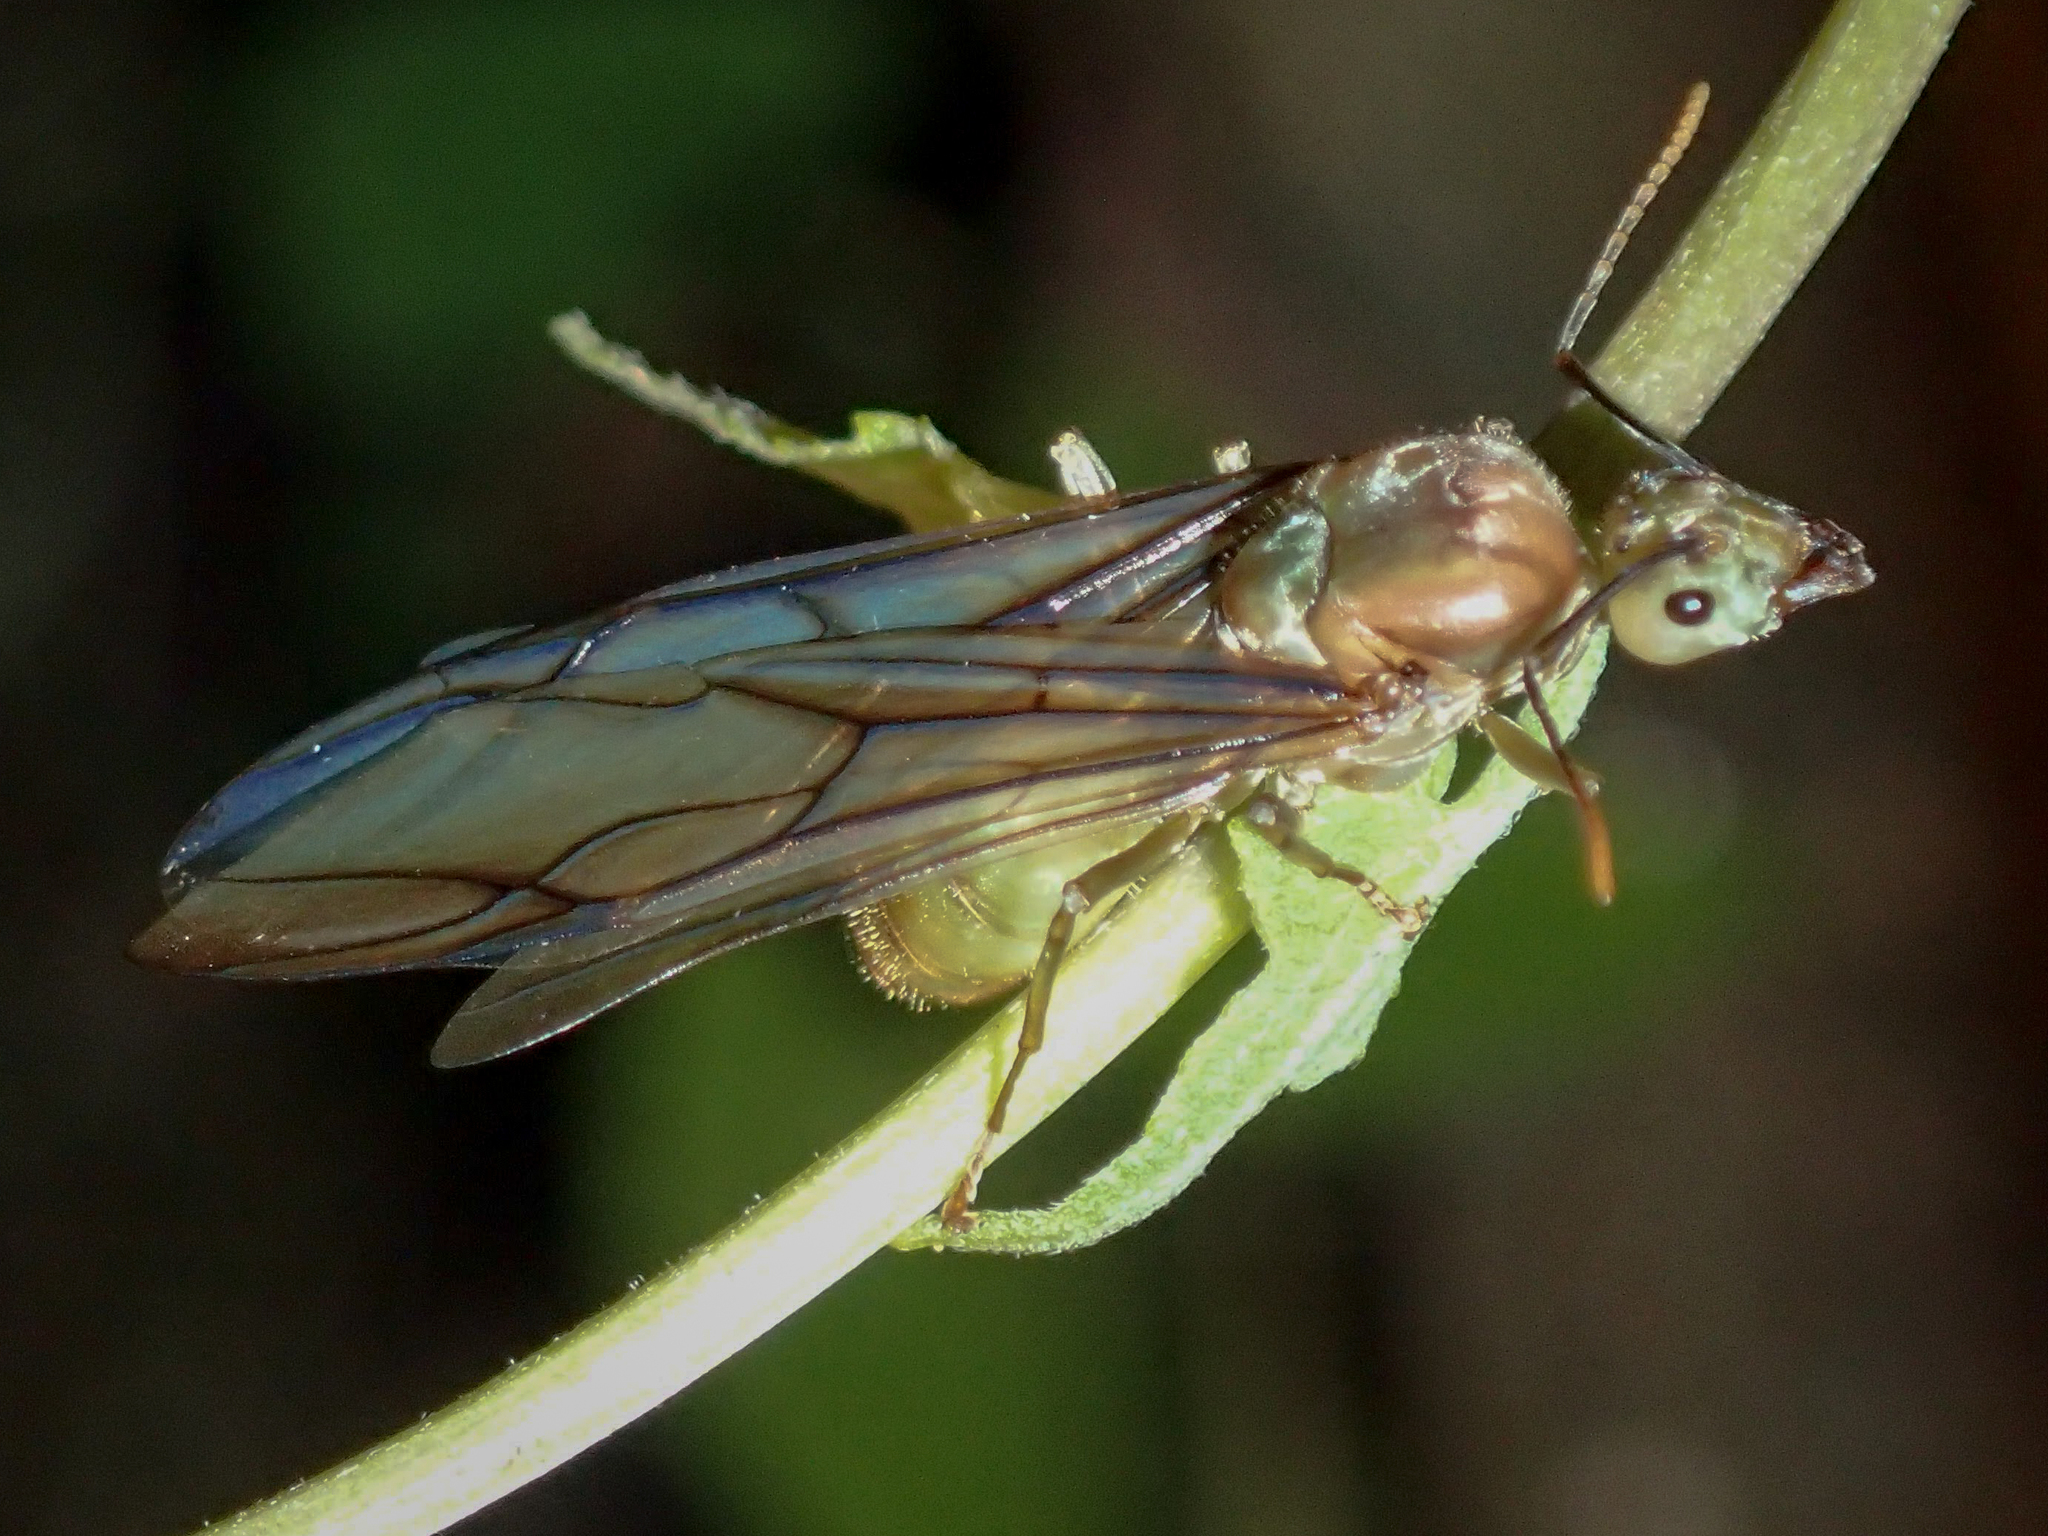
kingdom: Animalia
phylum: Arthropoda
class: Insecta
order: Hymenoptera
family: Formicidae
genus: Oecophylla
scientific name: Oecophylla smaragdina
